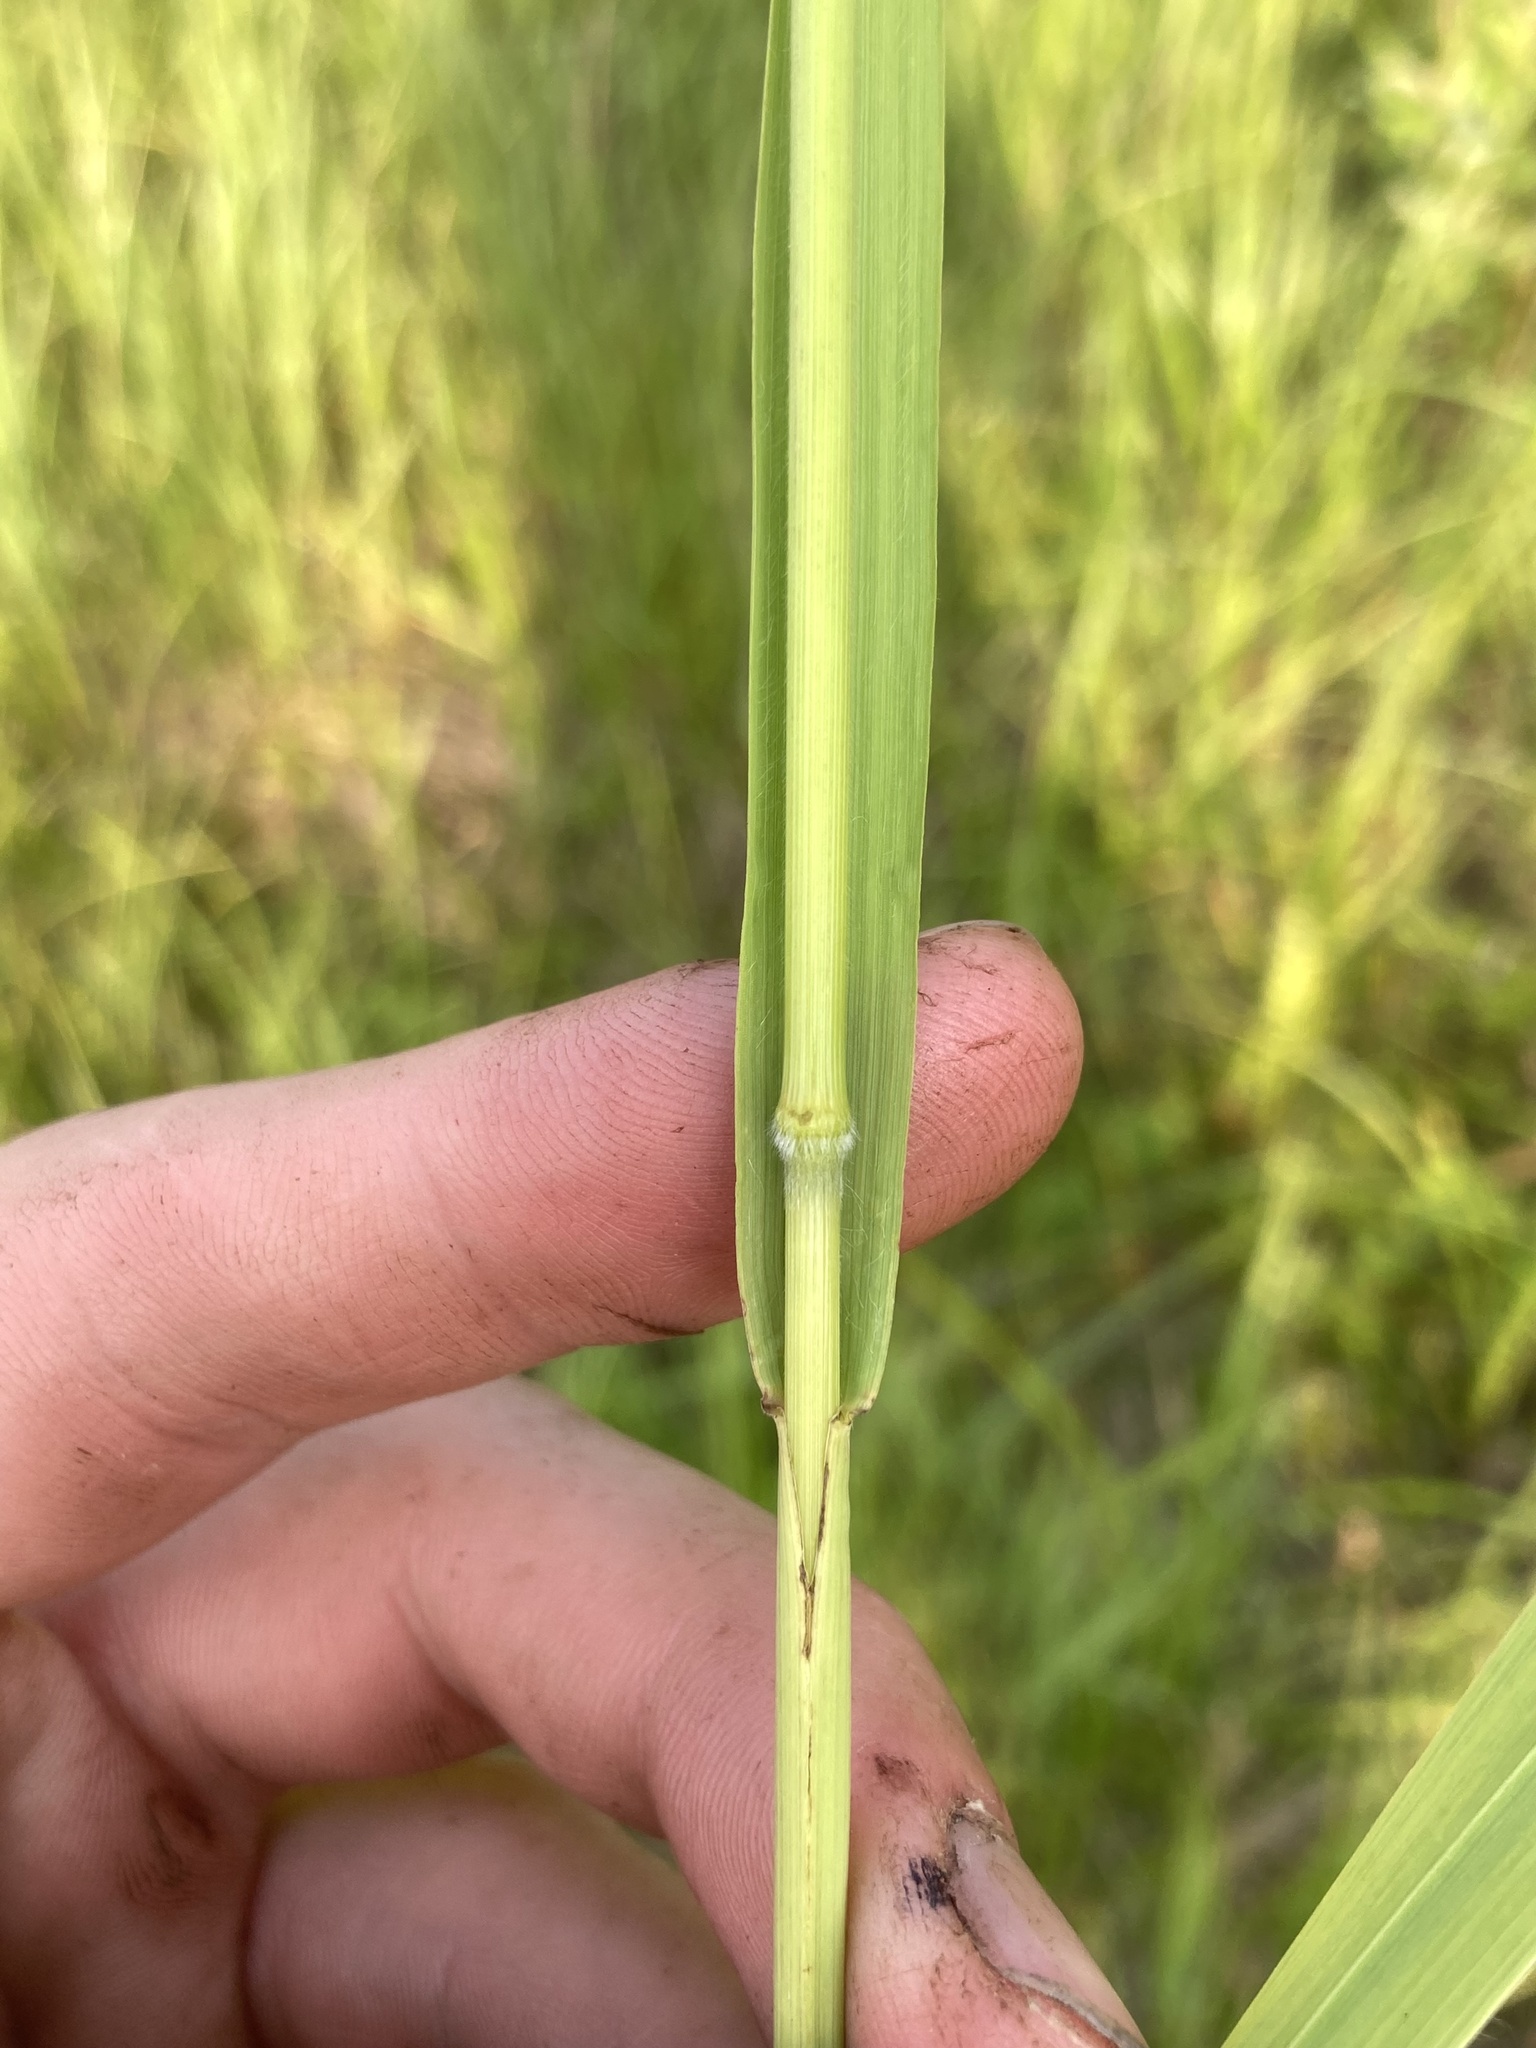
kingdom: Plantae
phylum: Tracheophyta
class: Liliopsida
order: Poales
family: Poaceae
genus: Bromus
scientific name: Bromus inermis
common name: Smooth brome
